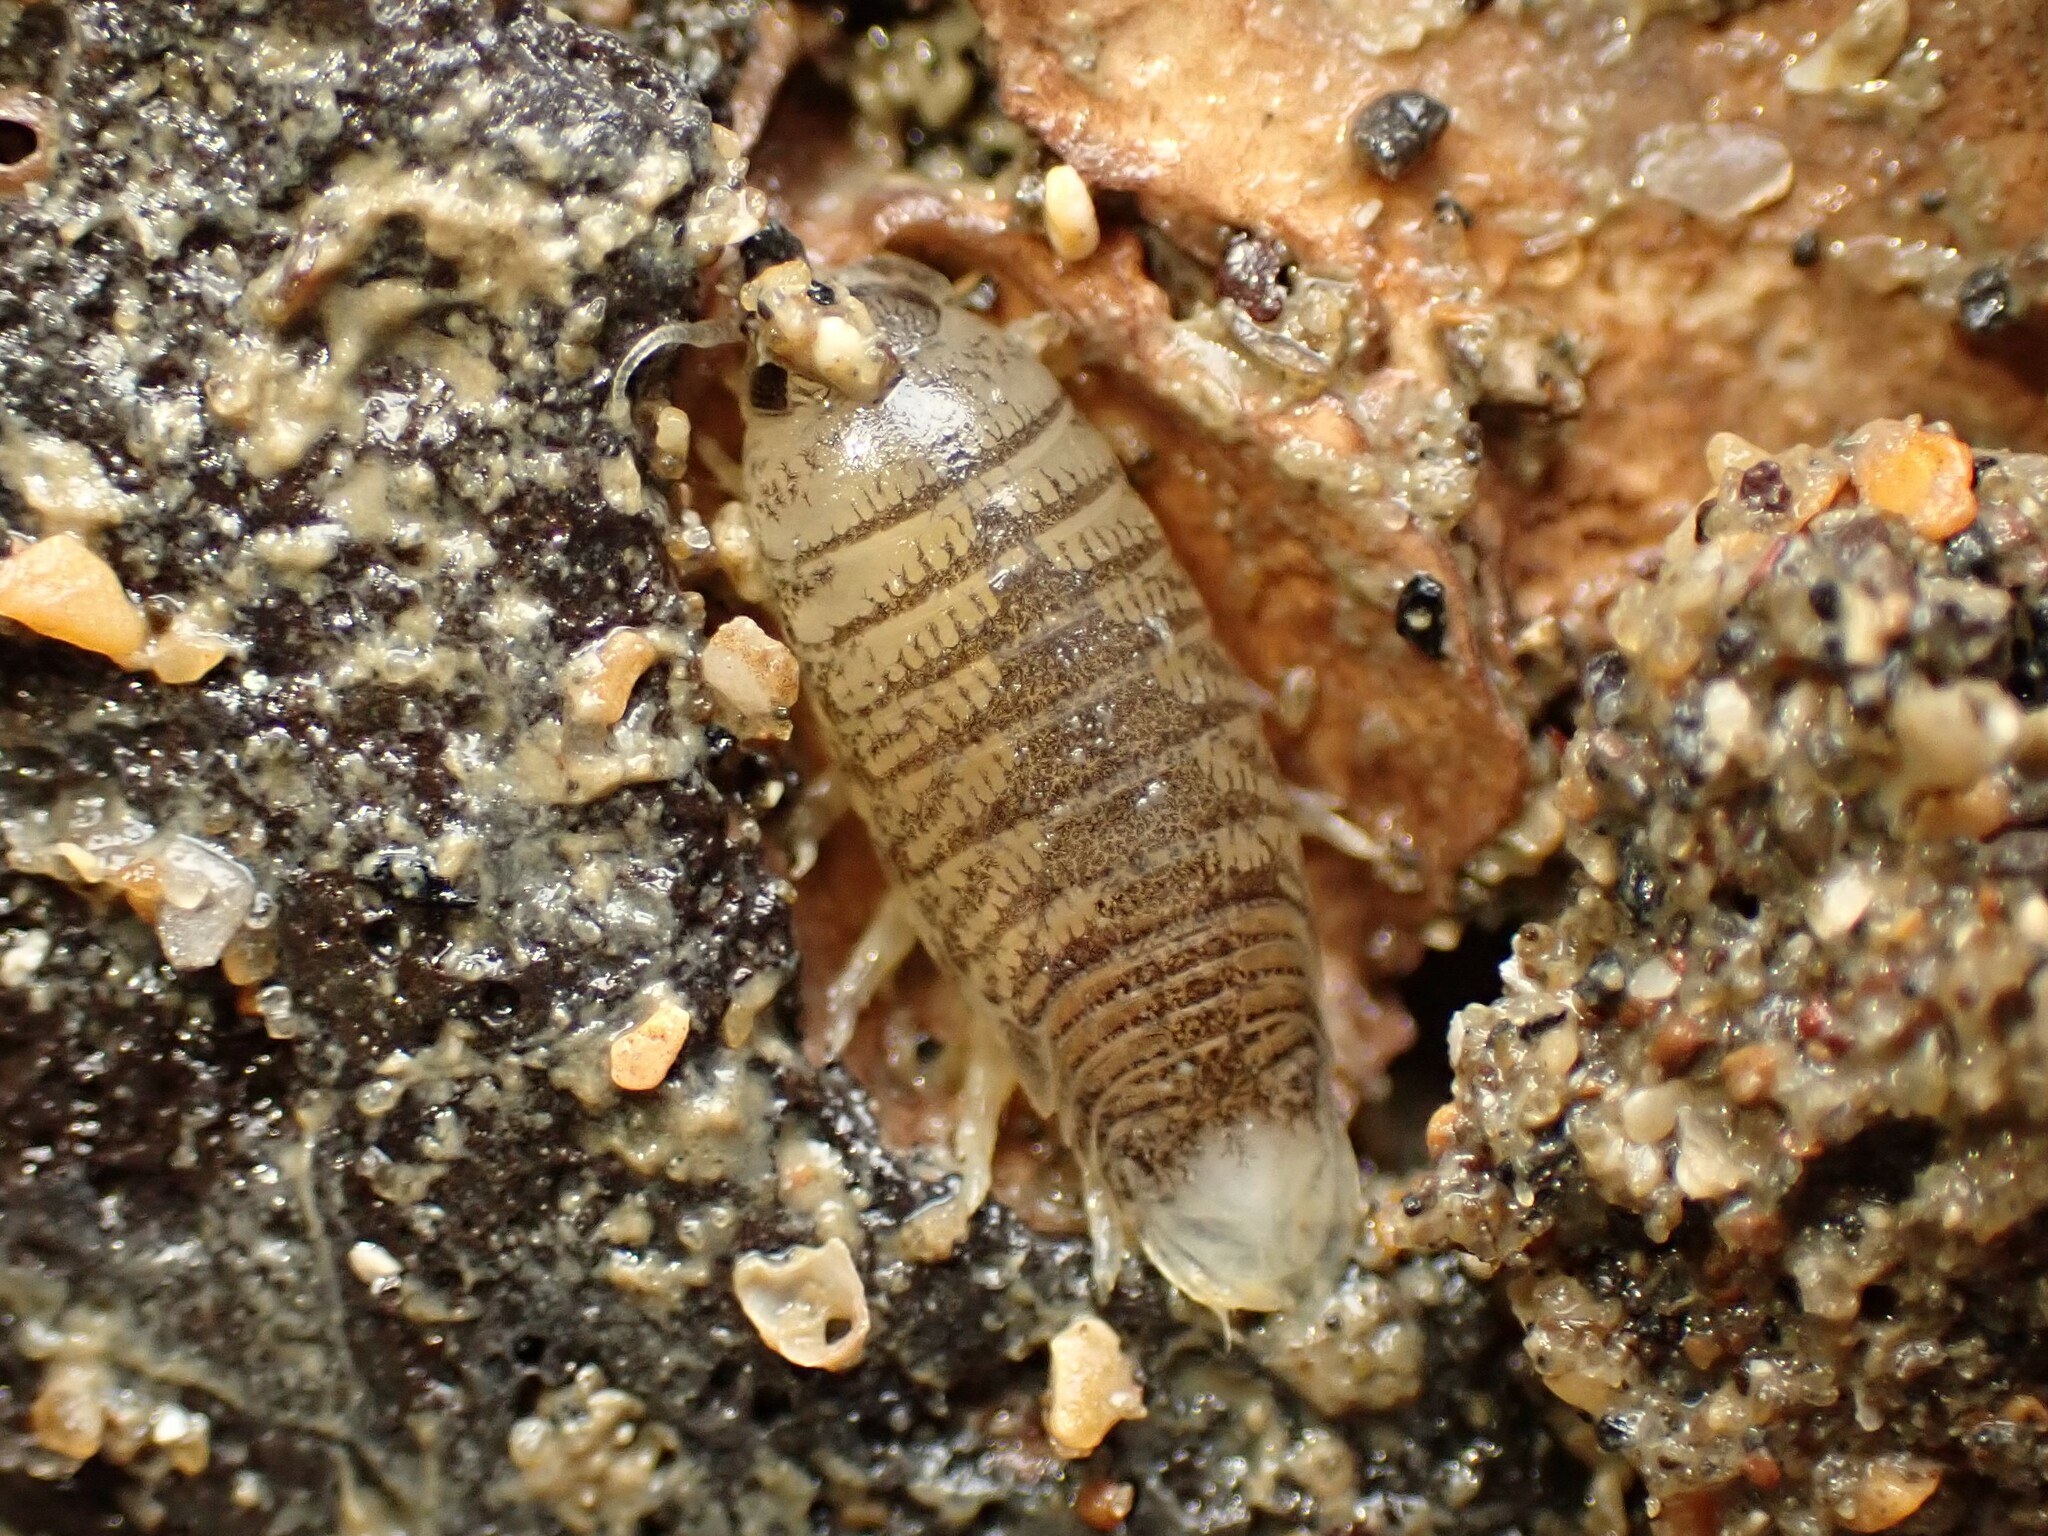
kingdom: Animalia
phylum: Arthropoda
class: Malacostraca
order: Isopoda
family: Cirolanidae
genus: Eurylana
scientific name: Eurylana arcuata
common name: Cirolanid isopod
